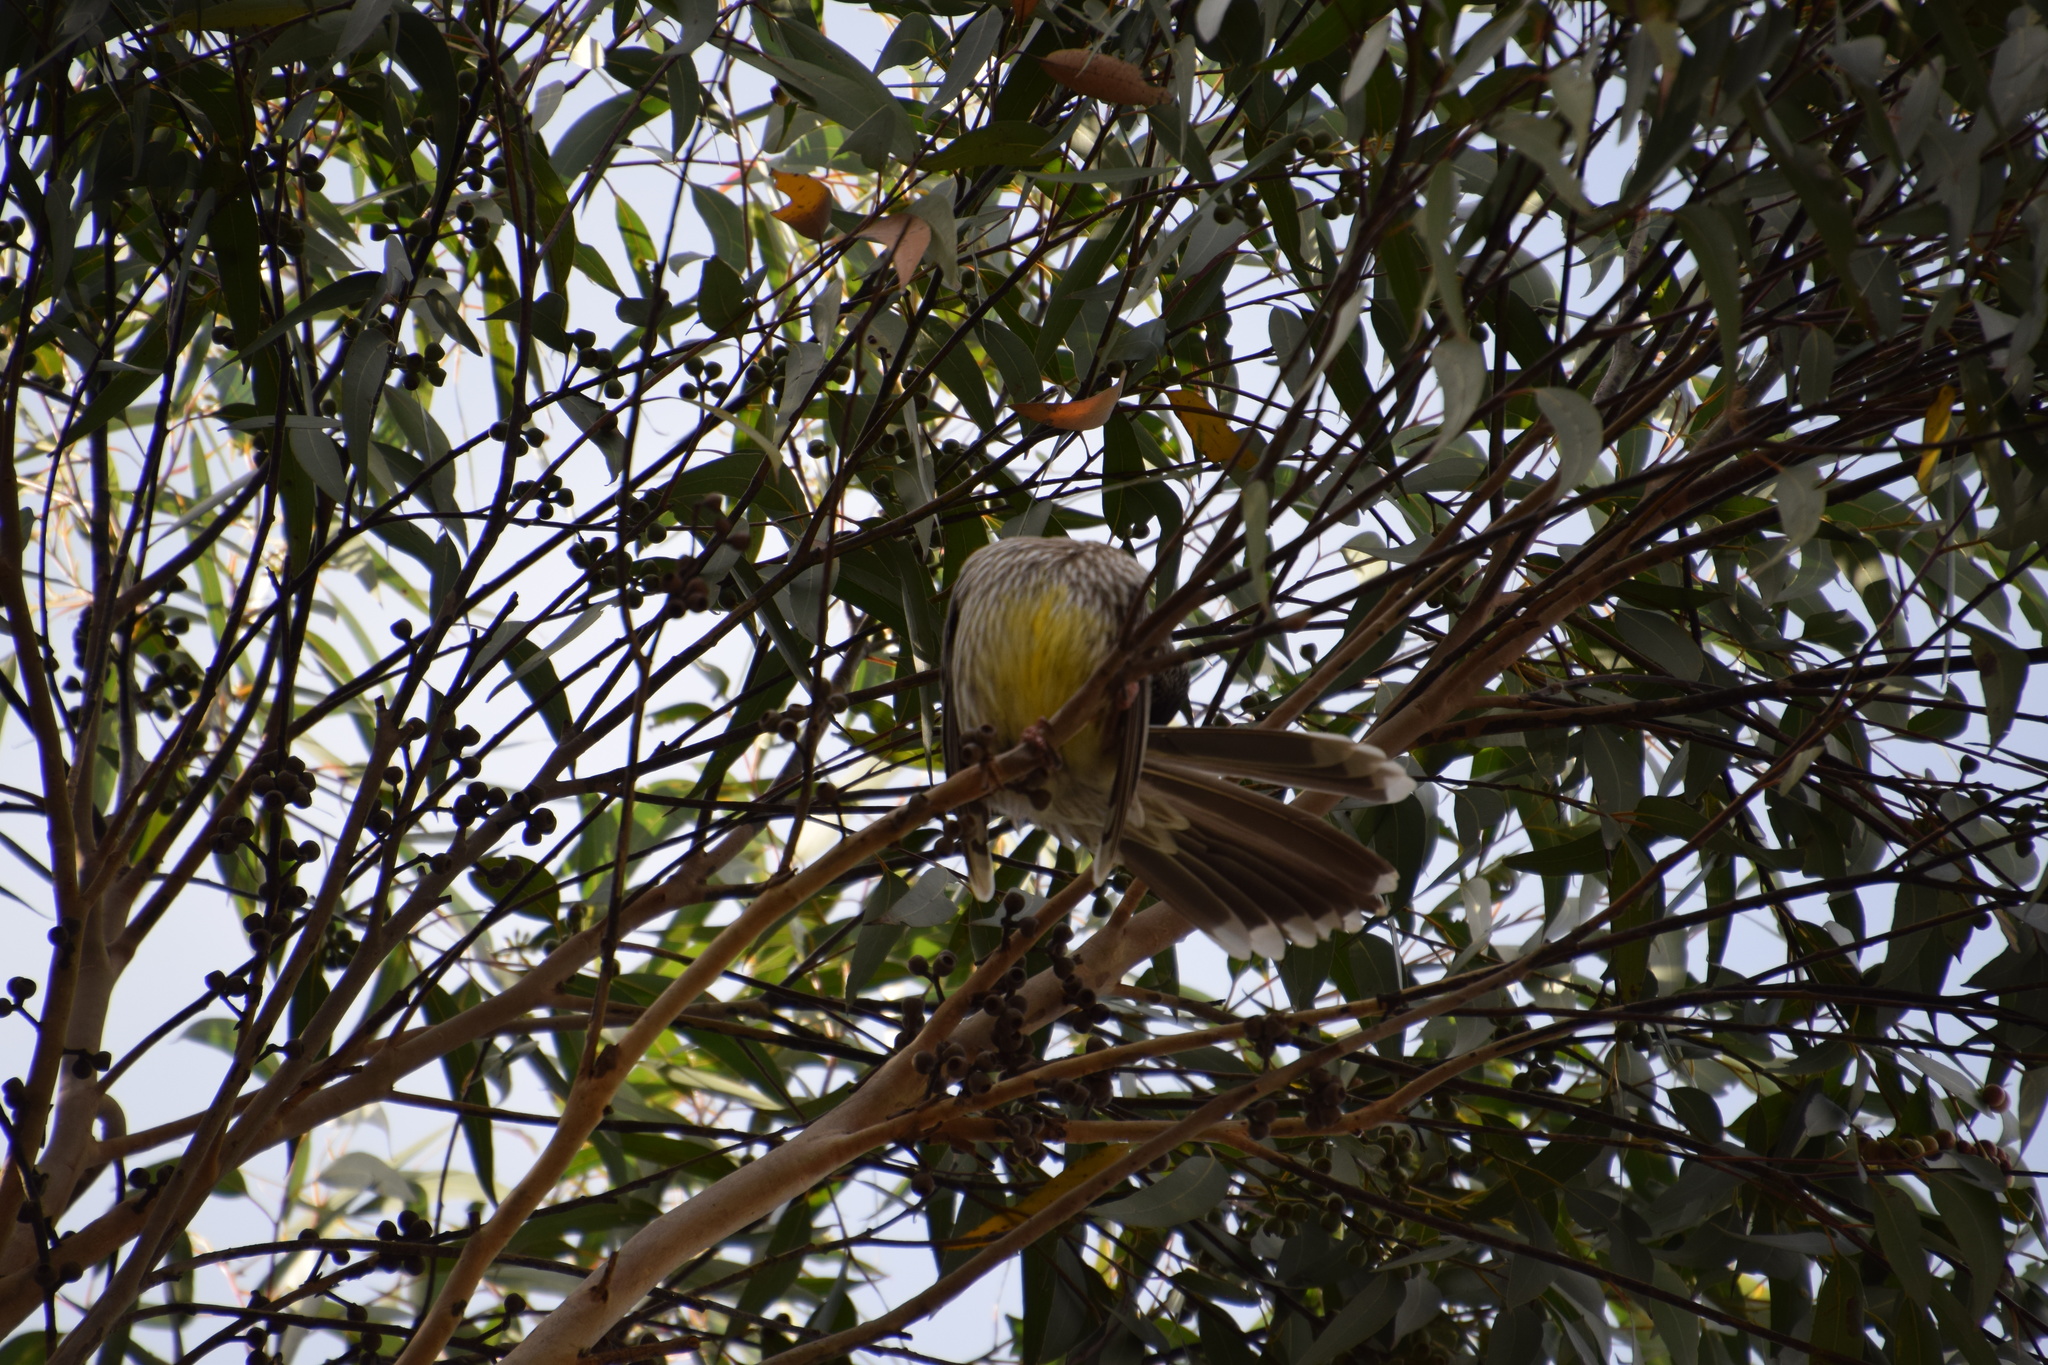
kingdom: Animalia
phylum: Chordata
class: Aves
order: Passeriformes
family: Meliphagidae
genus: Anthochaera
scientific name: Anthochaera carunculata
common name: Red wattlebird
